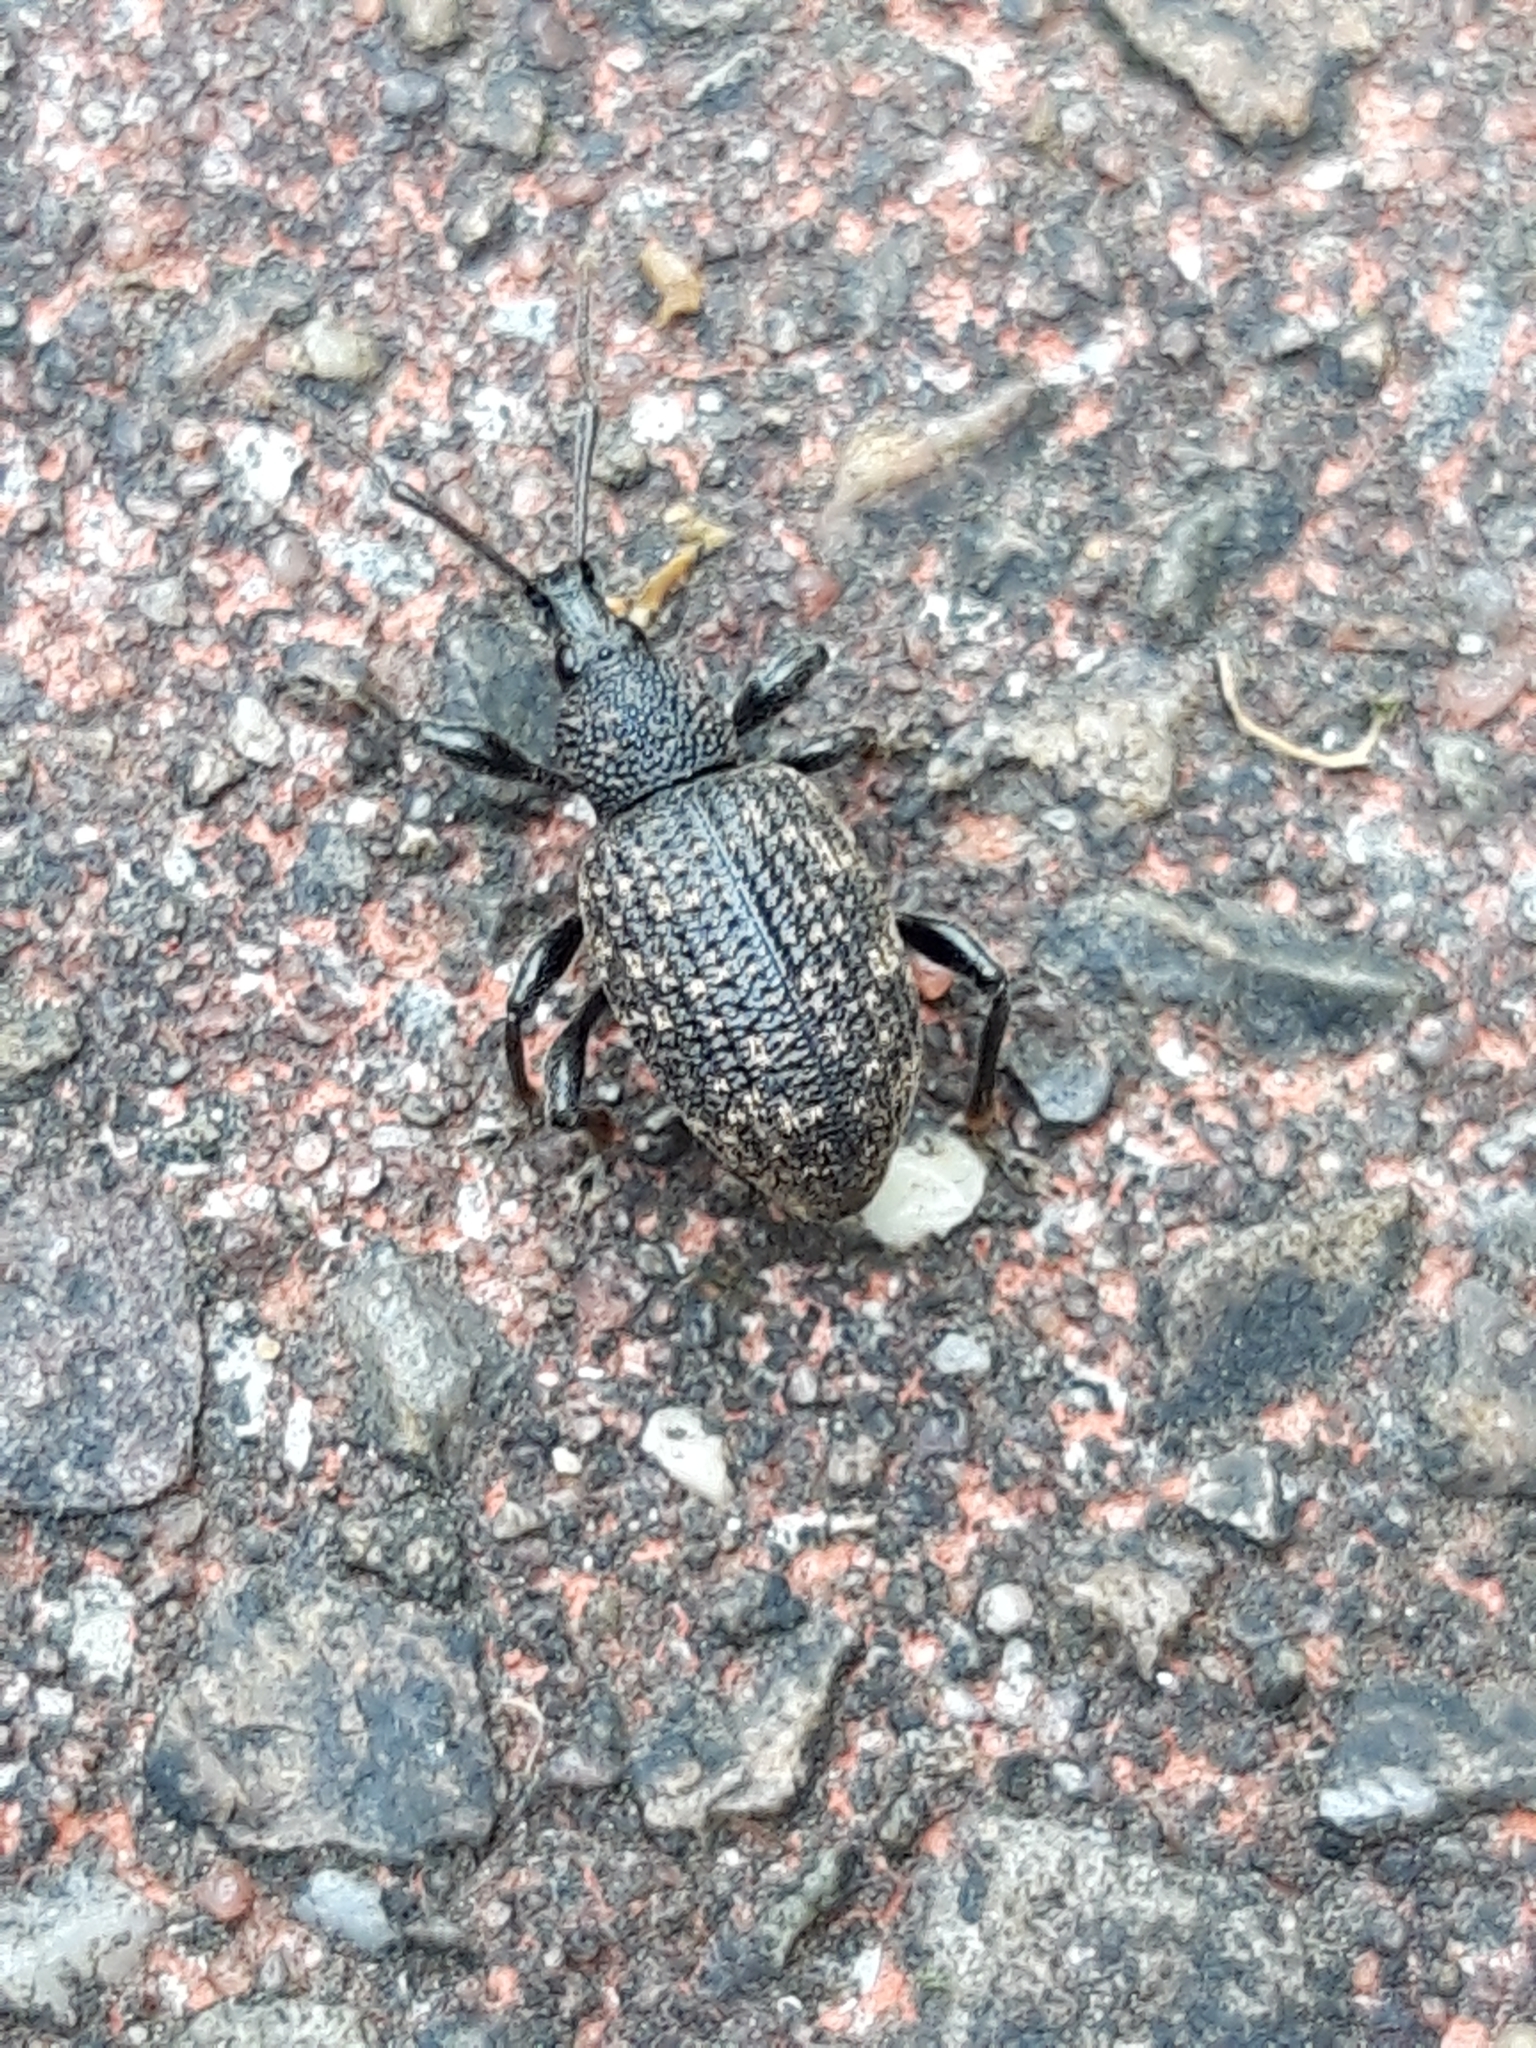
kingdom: Animalia
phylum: Arthropoda
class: Insecta
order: Coleoptera
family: Curculionidae
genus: Otiorhynchus
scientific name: Otiorhynchus sulcatus
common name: Black vine weevil
